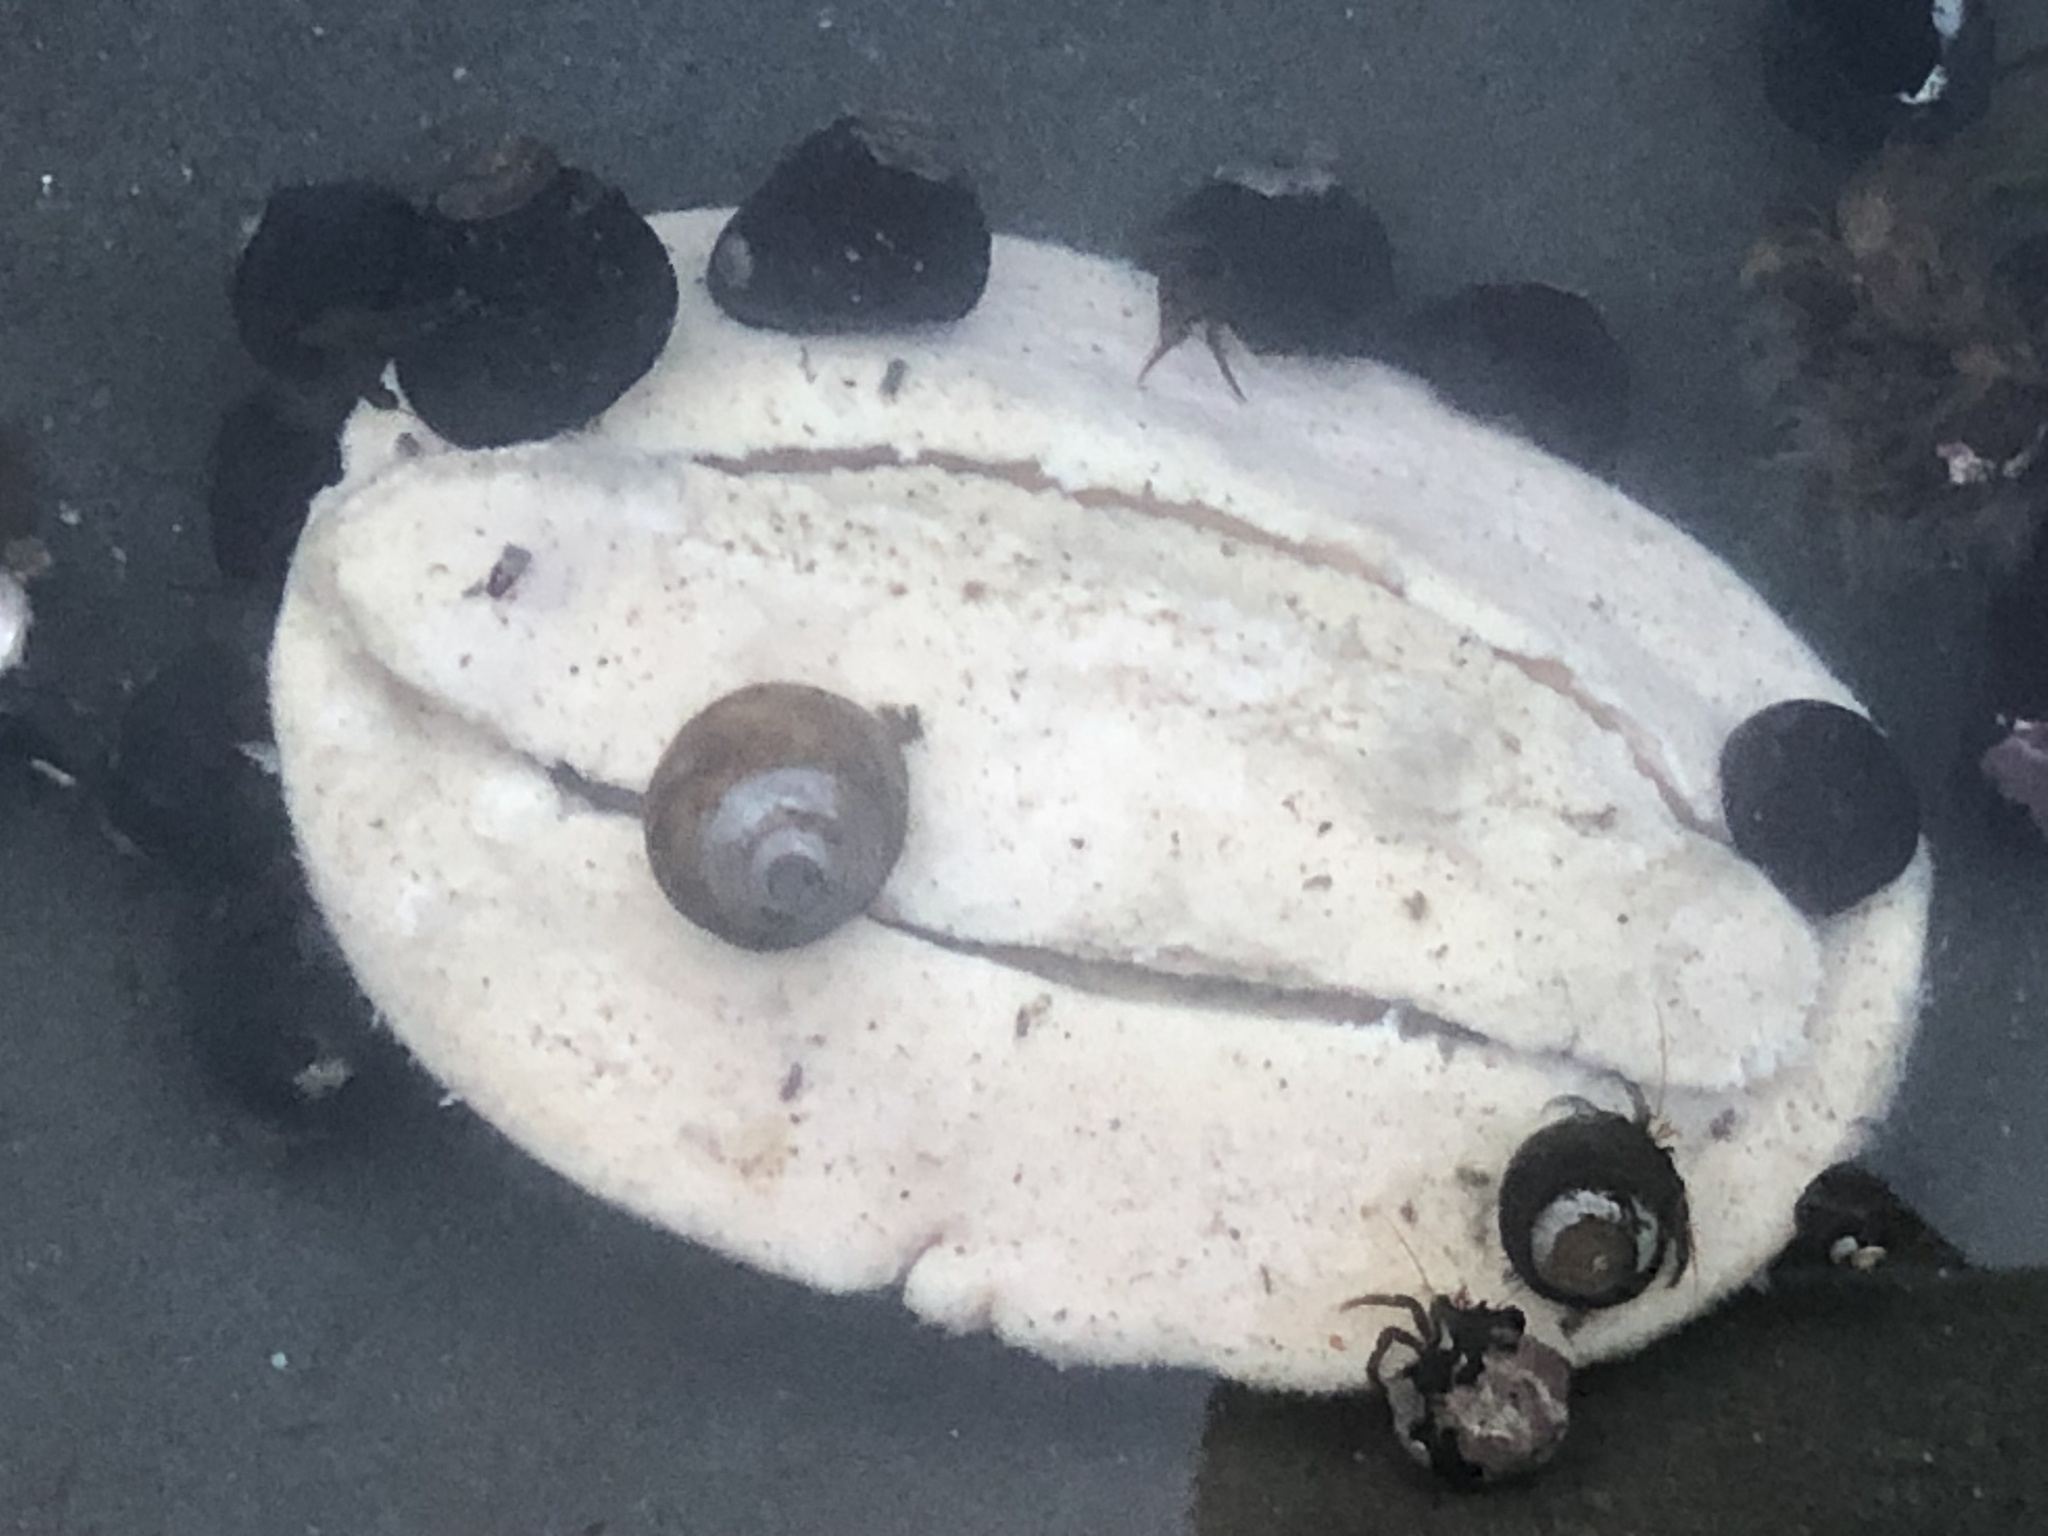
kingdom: Animalia
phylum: Mollusca
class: Polyplacophora
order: Chitonida
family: Acanthochitonidae
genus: Cryptochiton
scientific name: Cryptochiton stelleri
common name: Giant pacific chiton
